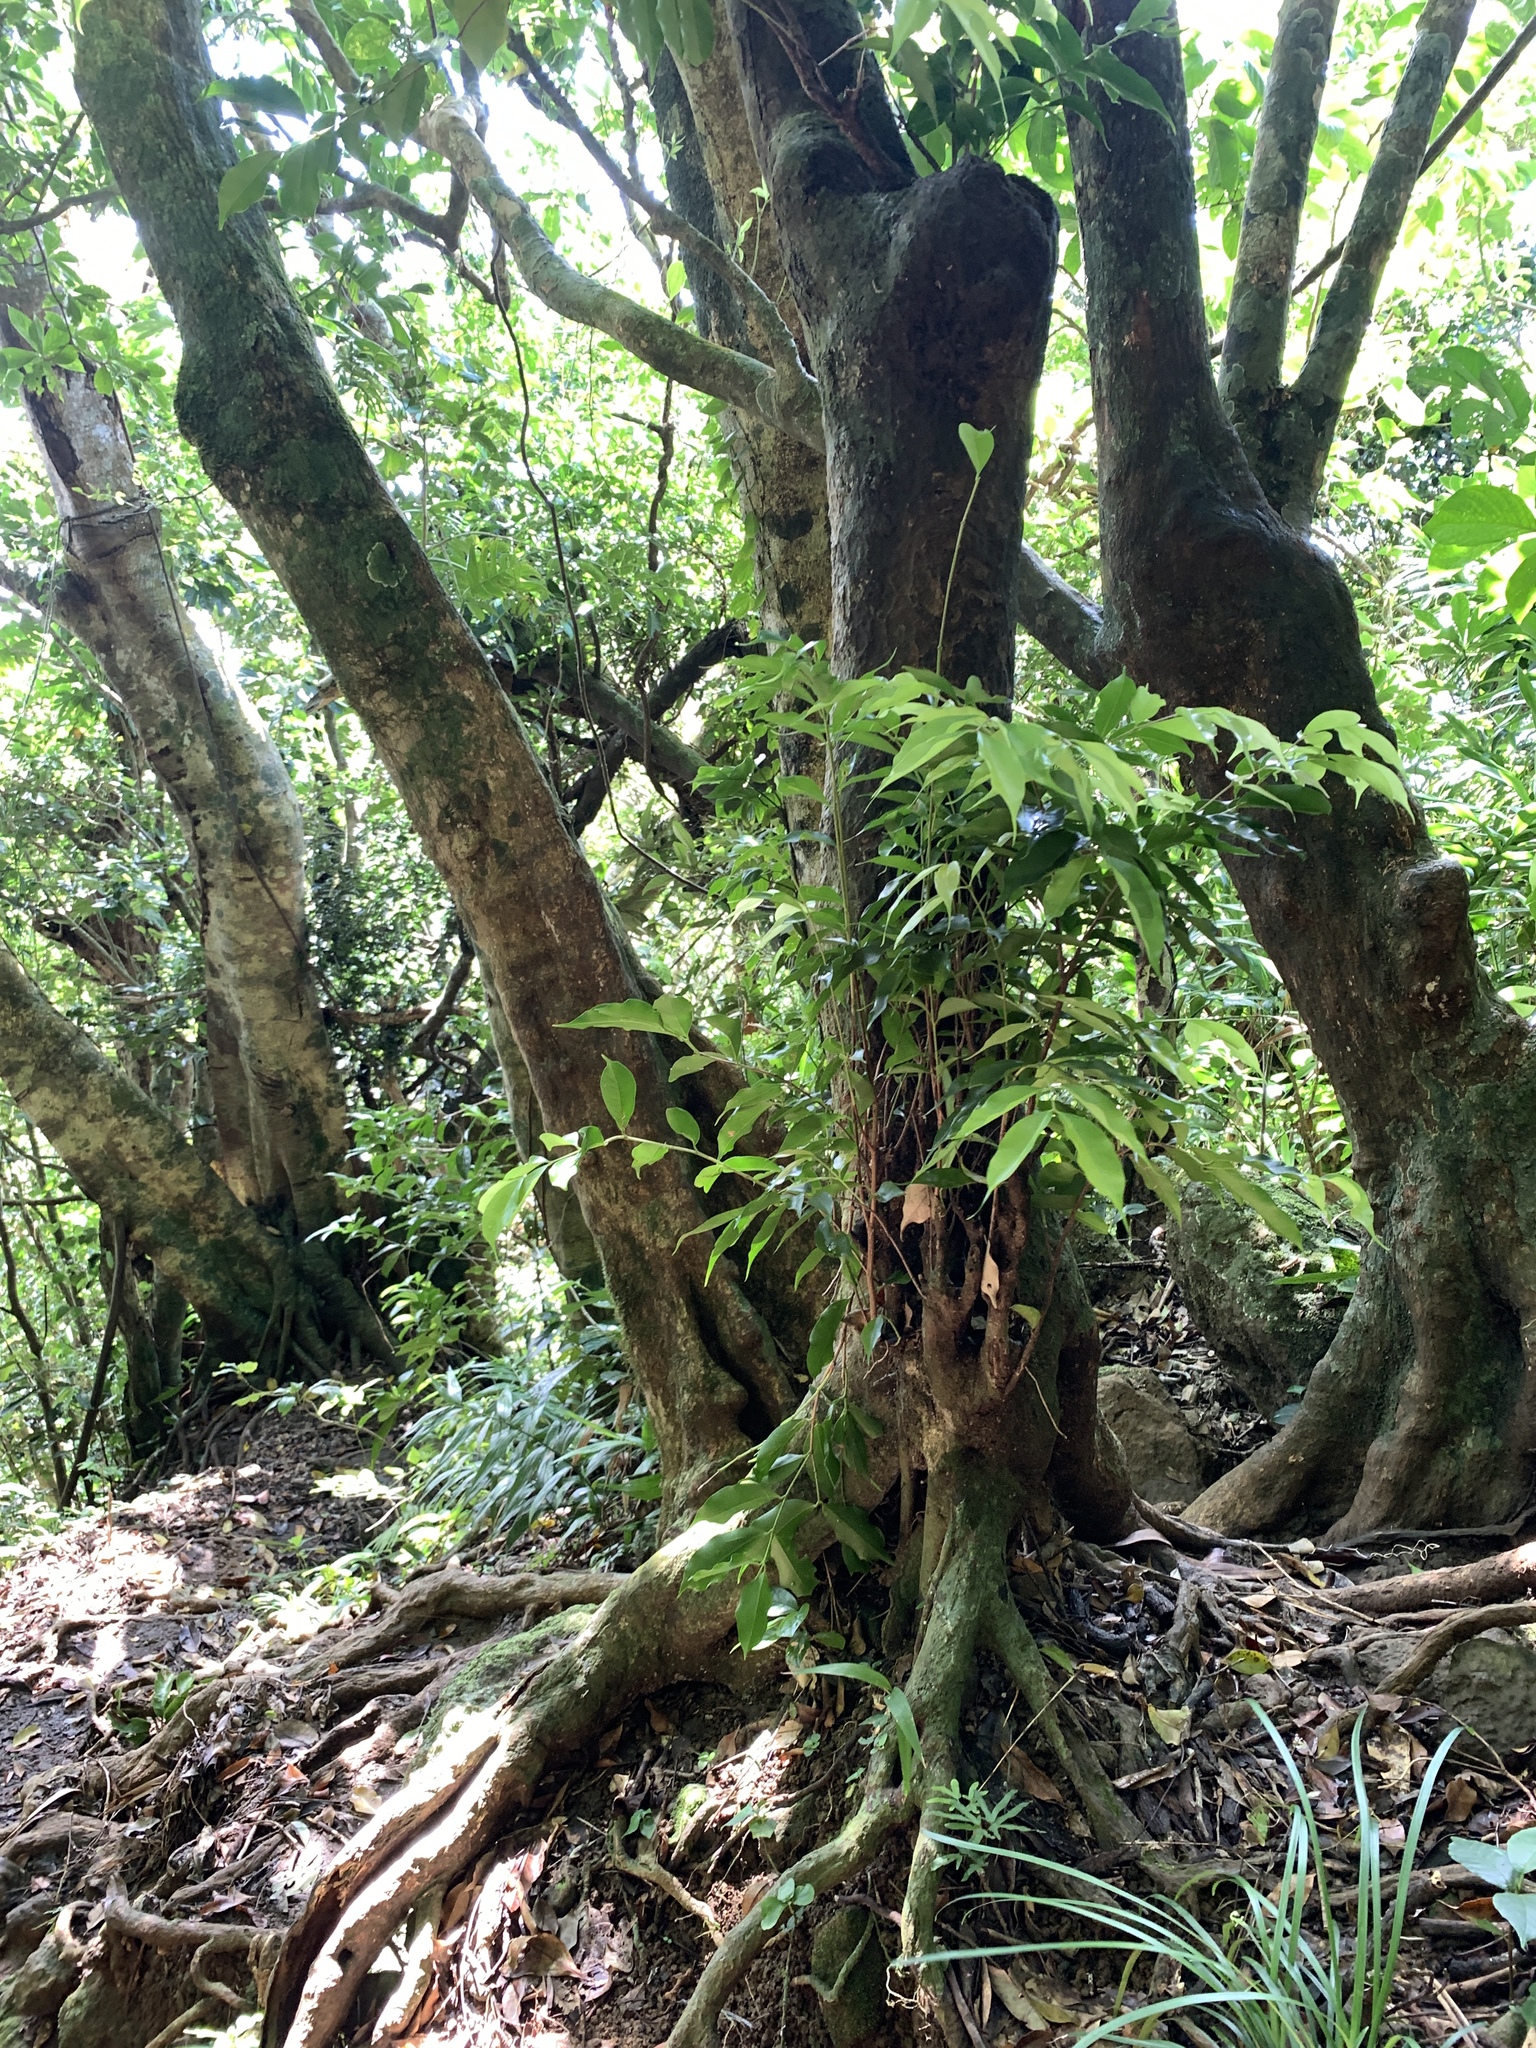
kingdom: Plantae
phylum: Tracheophyta
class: Magnoliopsida
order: Myrtales
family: Myrtaceae
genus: Syzygium
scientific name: Syzygium acuminatissimum
